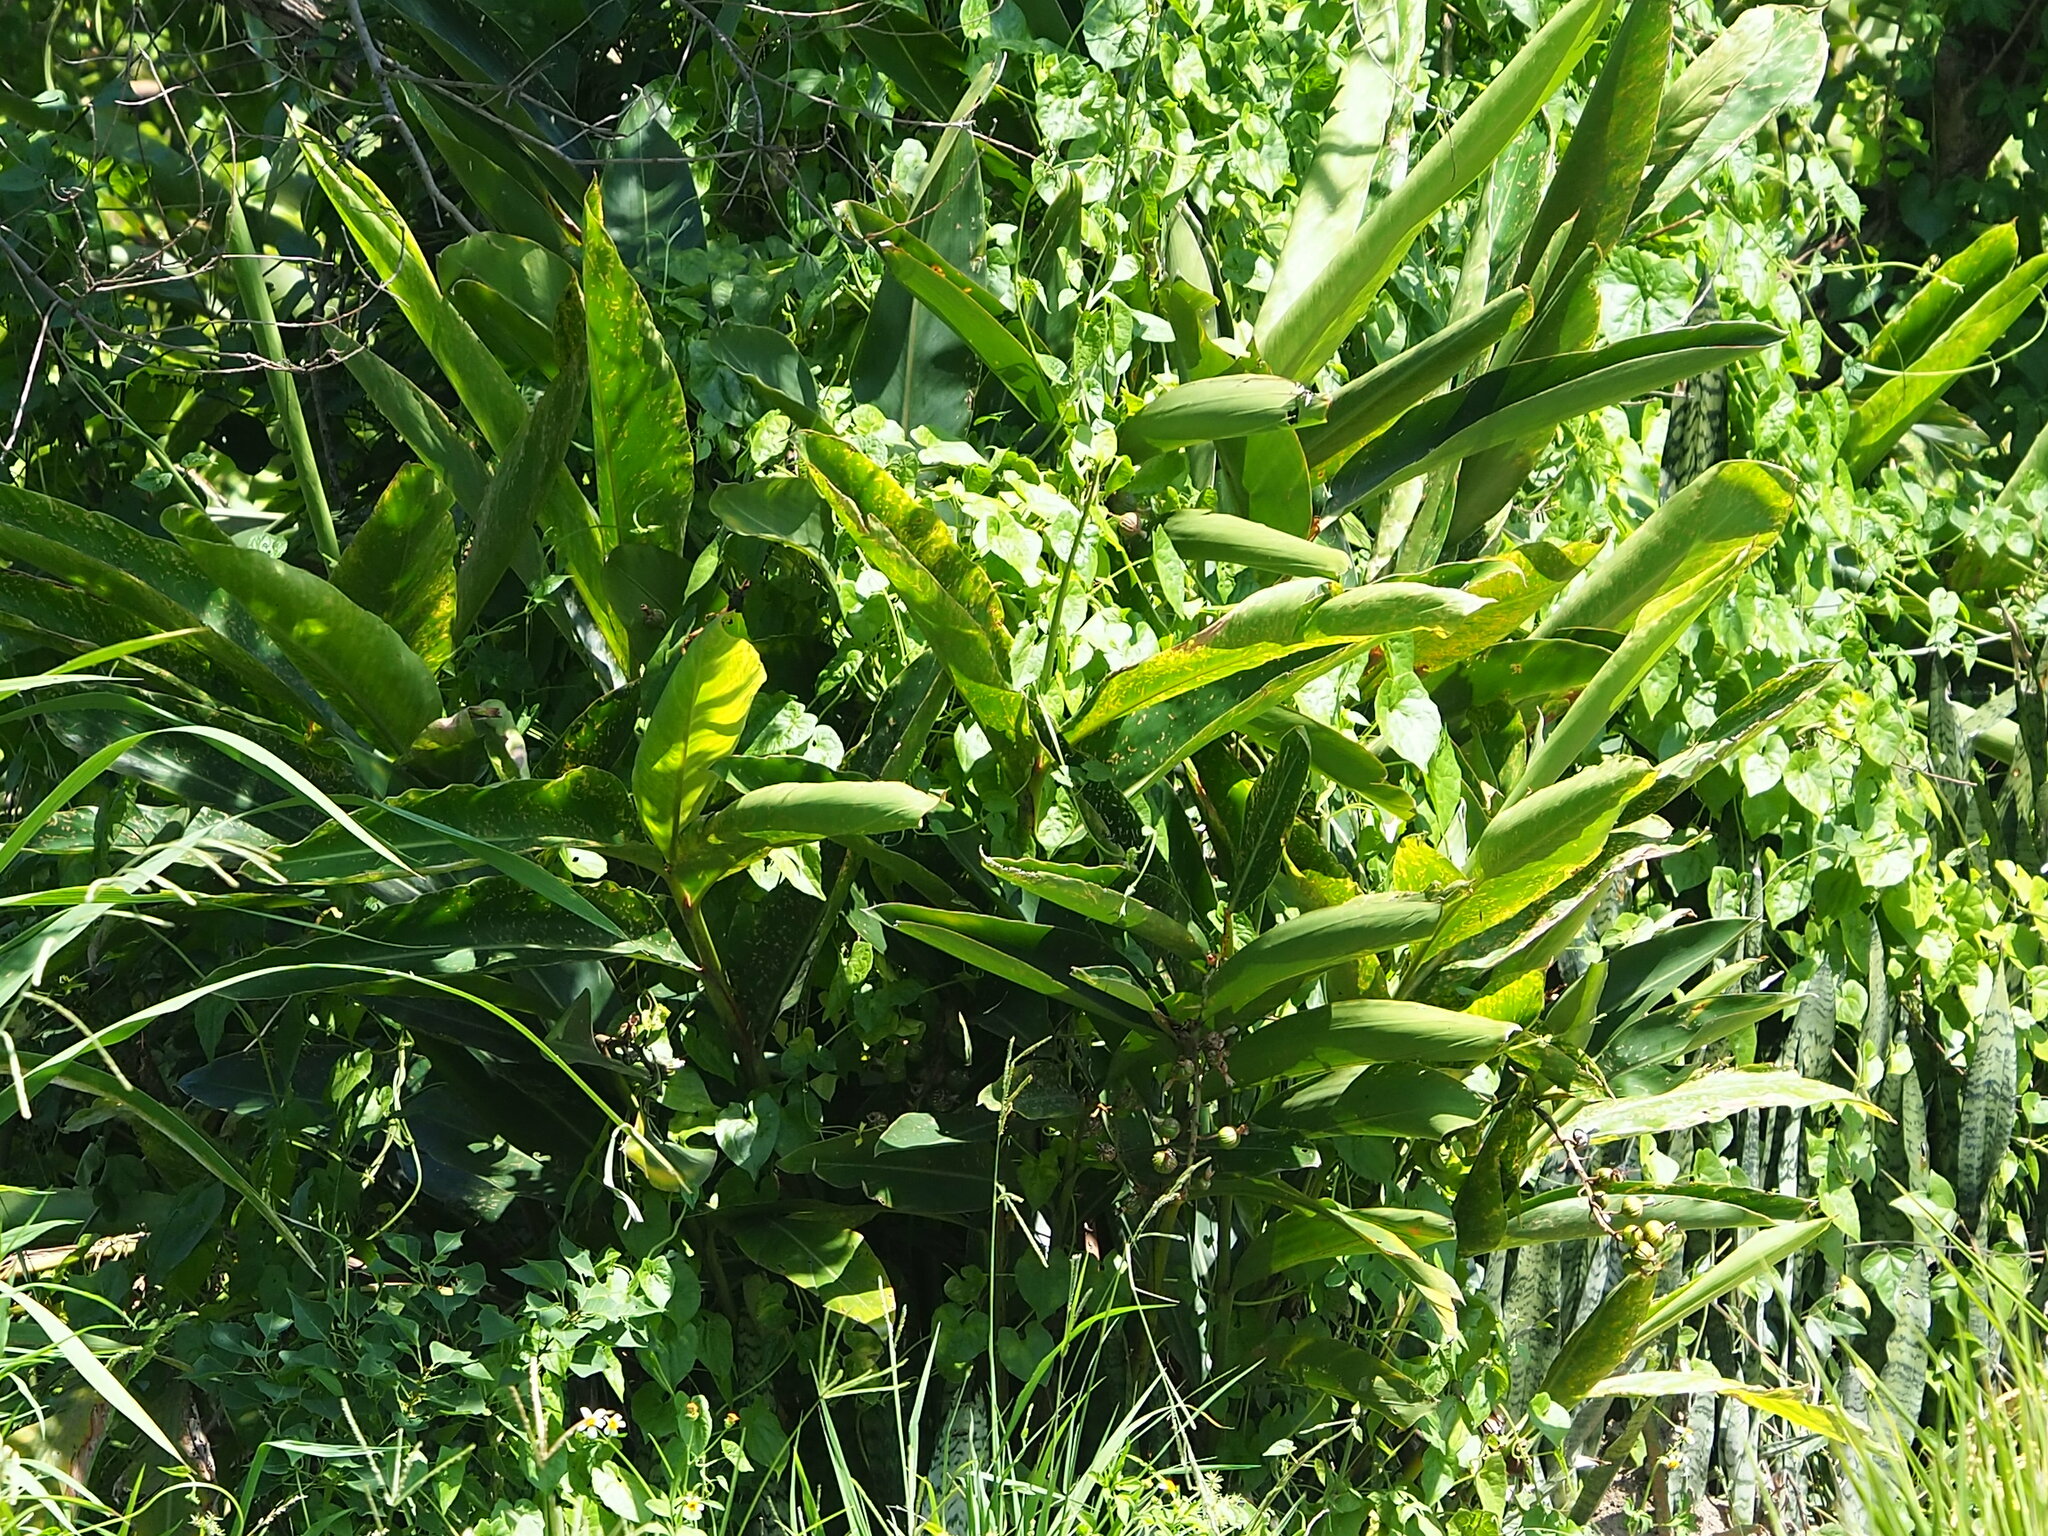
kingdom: Plantae
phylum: Tracheophyta
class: Liliopsida
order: Zingiberales
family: Zingiberaceae
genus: Alpinia
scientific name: Alpinia zerumbet
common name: Shellplant
